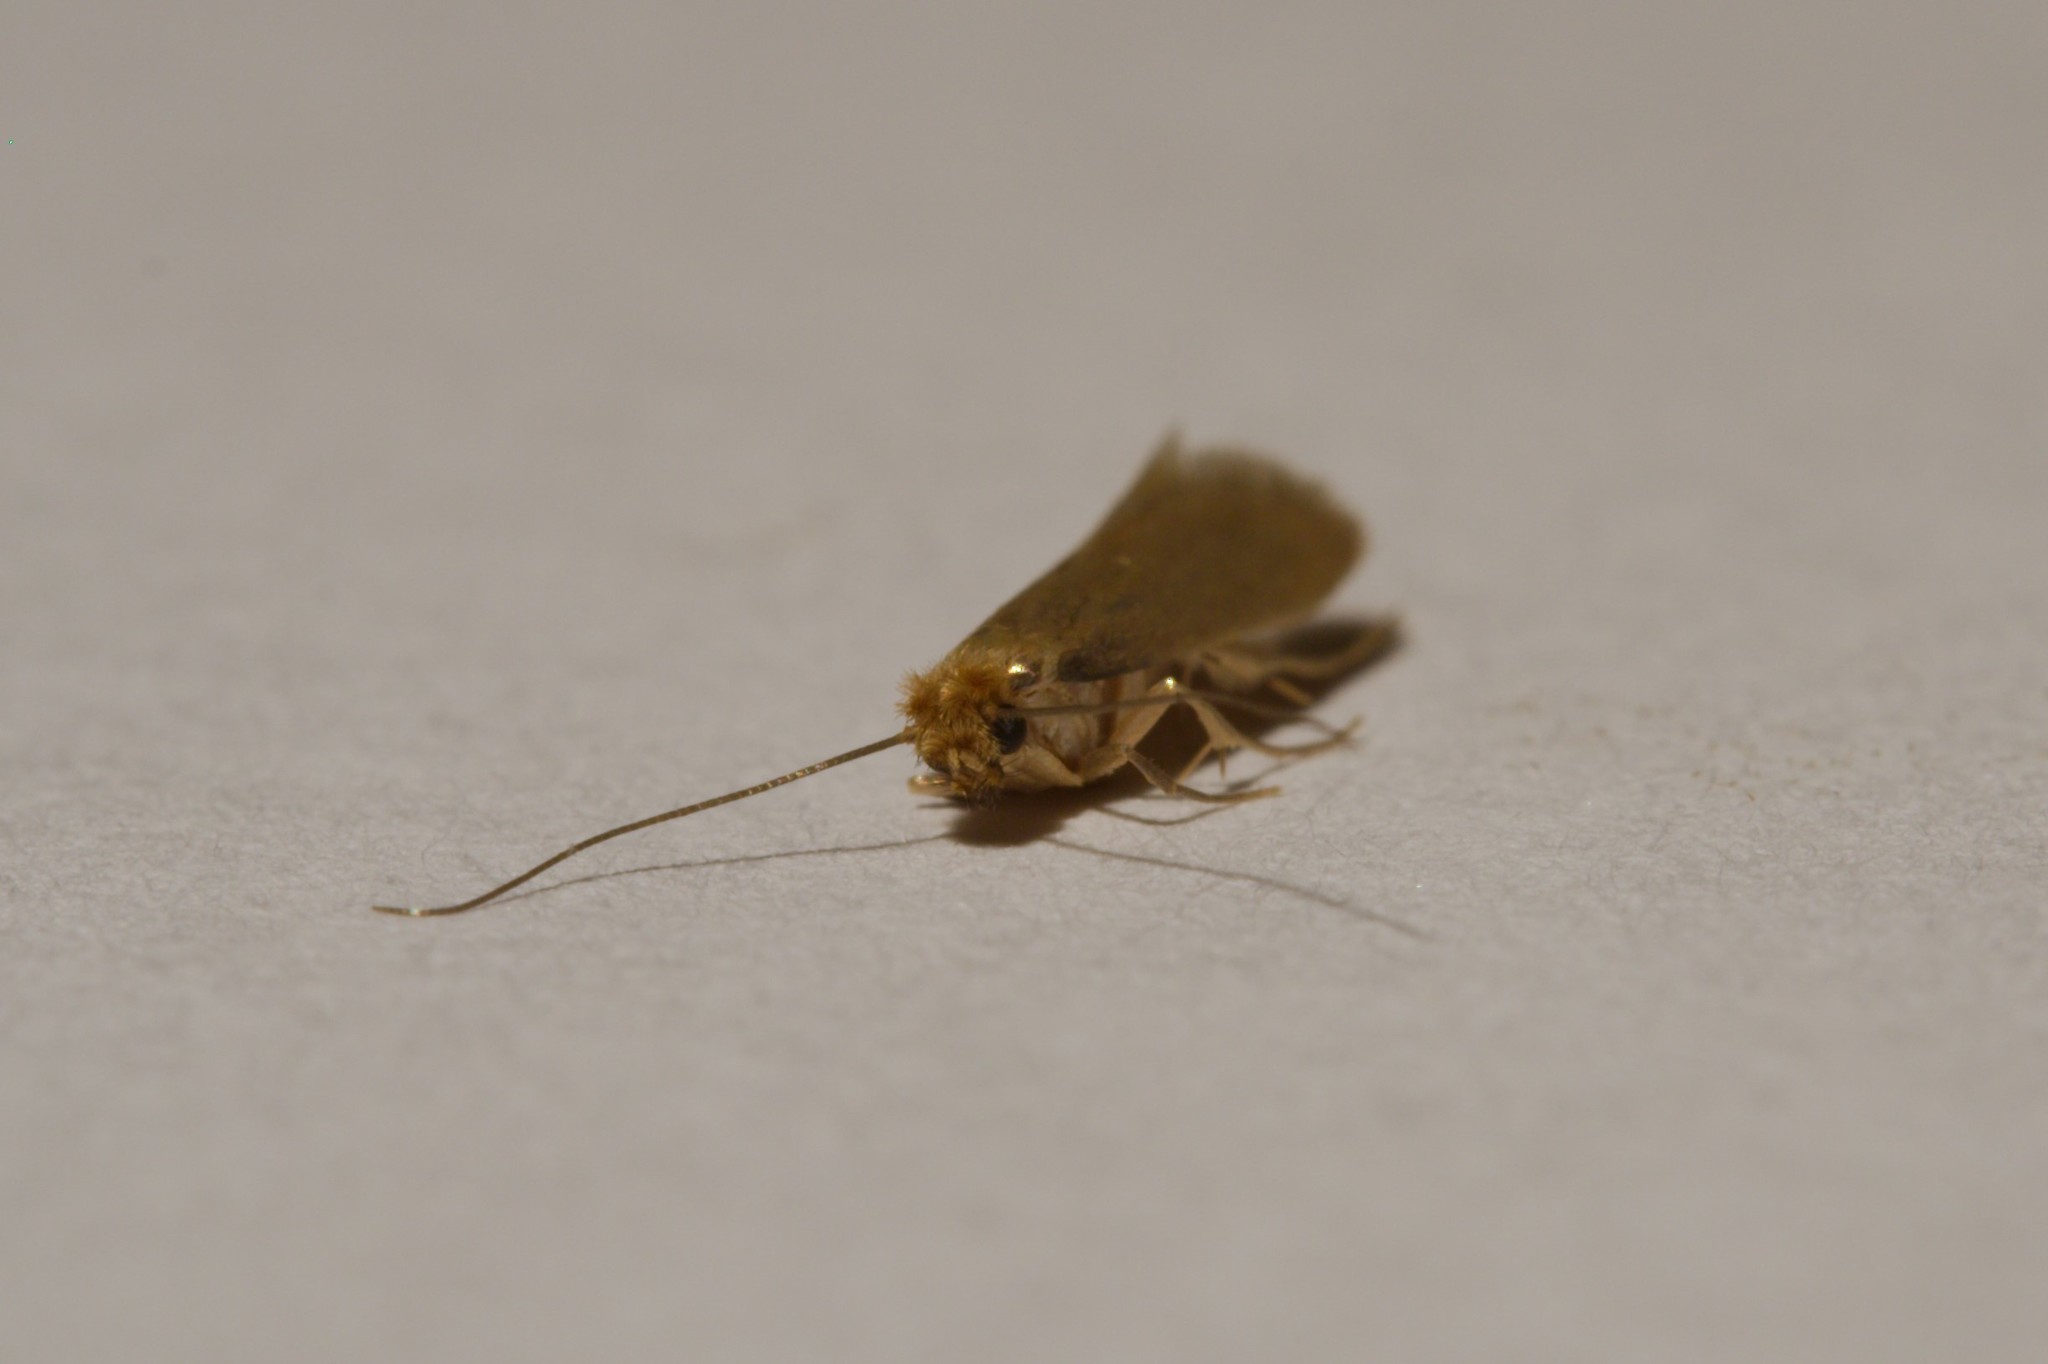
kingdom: Animalia
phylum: Arthropoda
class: Insecta
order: Lepidoptera
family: Tineidae
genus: Tineola
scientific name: Tineola bisselliella
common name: Webbing clothes moth
